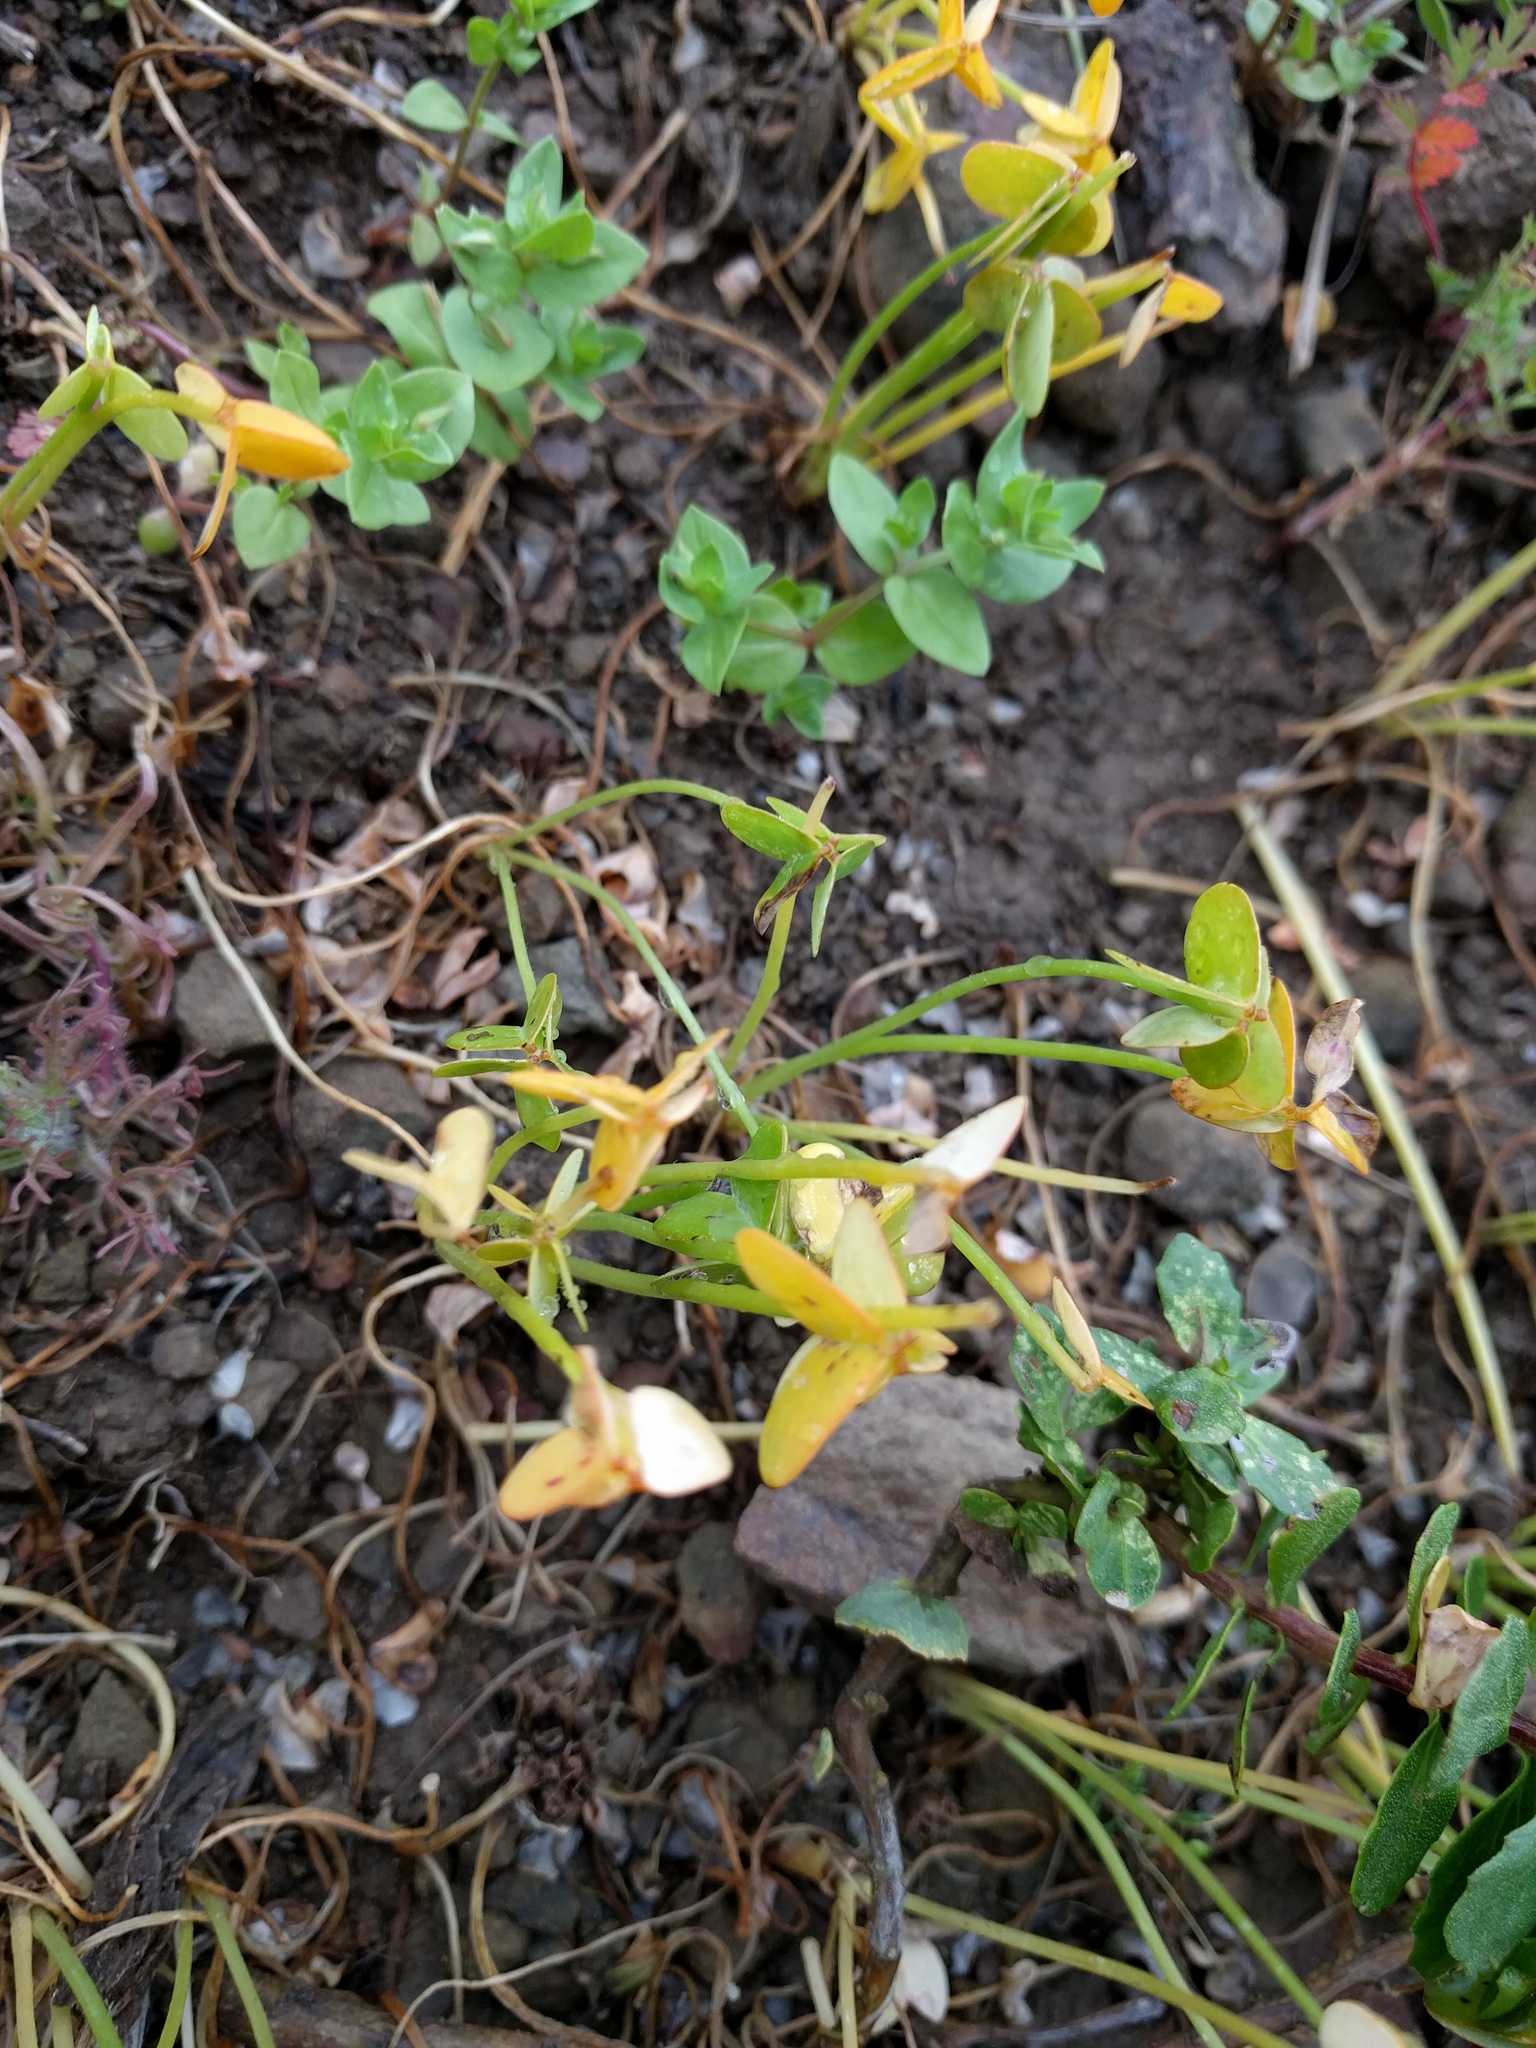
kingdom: Plantae
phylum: Tracheophyta
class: Magnoliopsida
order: Oxalidales
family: Oxalidaceae
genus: Oxalis
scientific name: Oxalis pes-caprae
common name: Bermuda-buttercup
